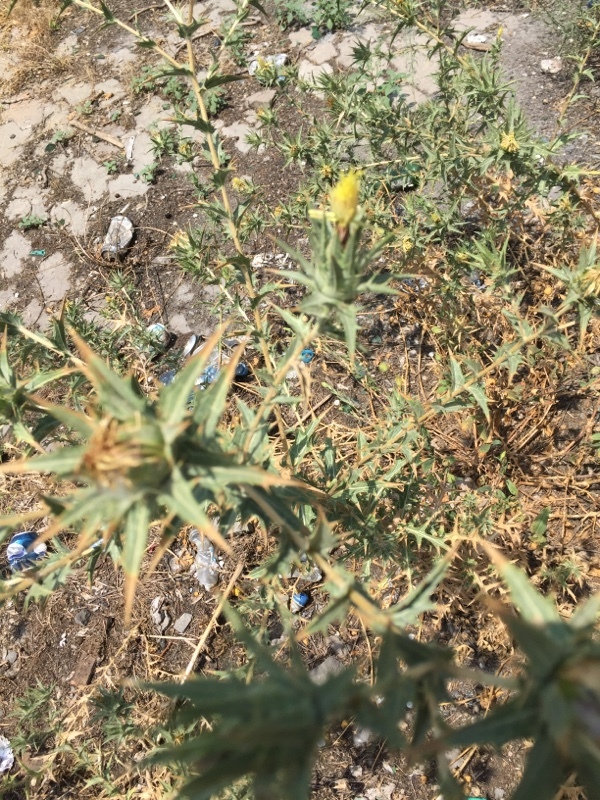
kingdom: Plantae
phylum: Tracheophyta
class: Magnoliopsida
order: Asterales
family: Asteraceae
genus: Carthamus
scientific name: Carthamus lanatus
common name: Downy safflower
